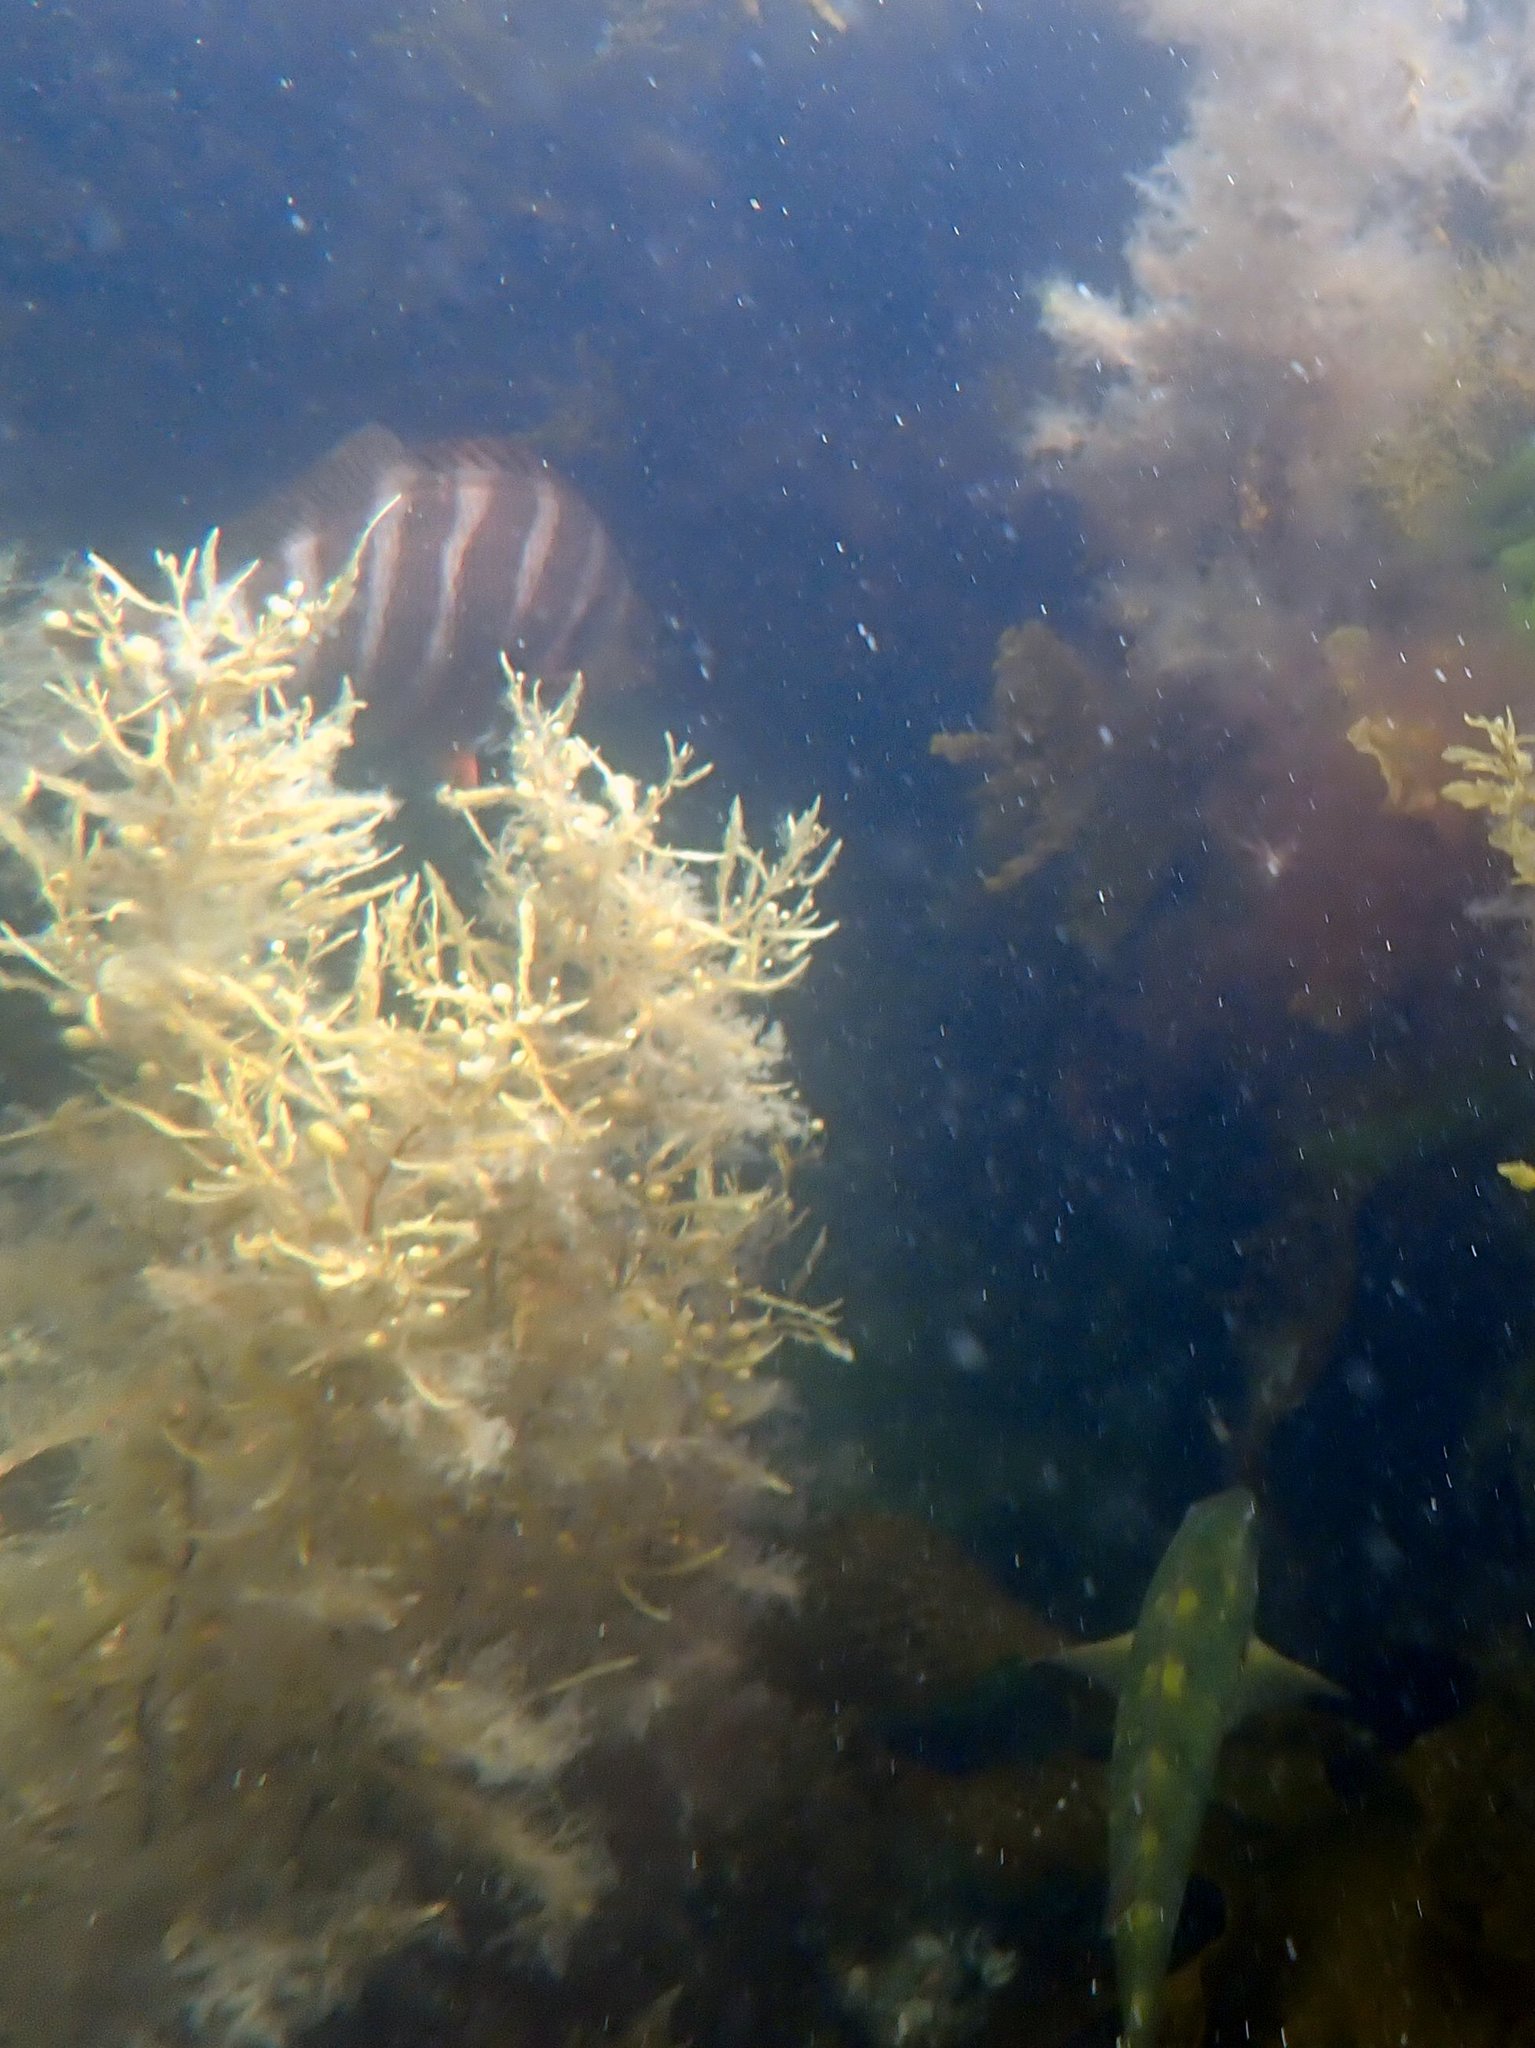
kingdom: Animalia
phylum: Chordata
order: Perciformes
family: Labridae
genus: Notolabrus
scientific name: Notolabrus fucicola
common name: Banded parrotfish
